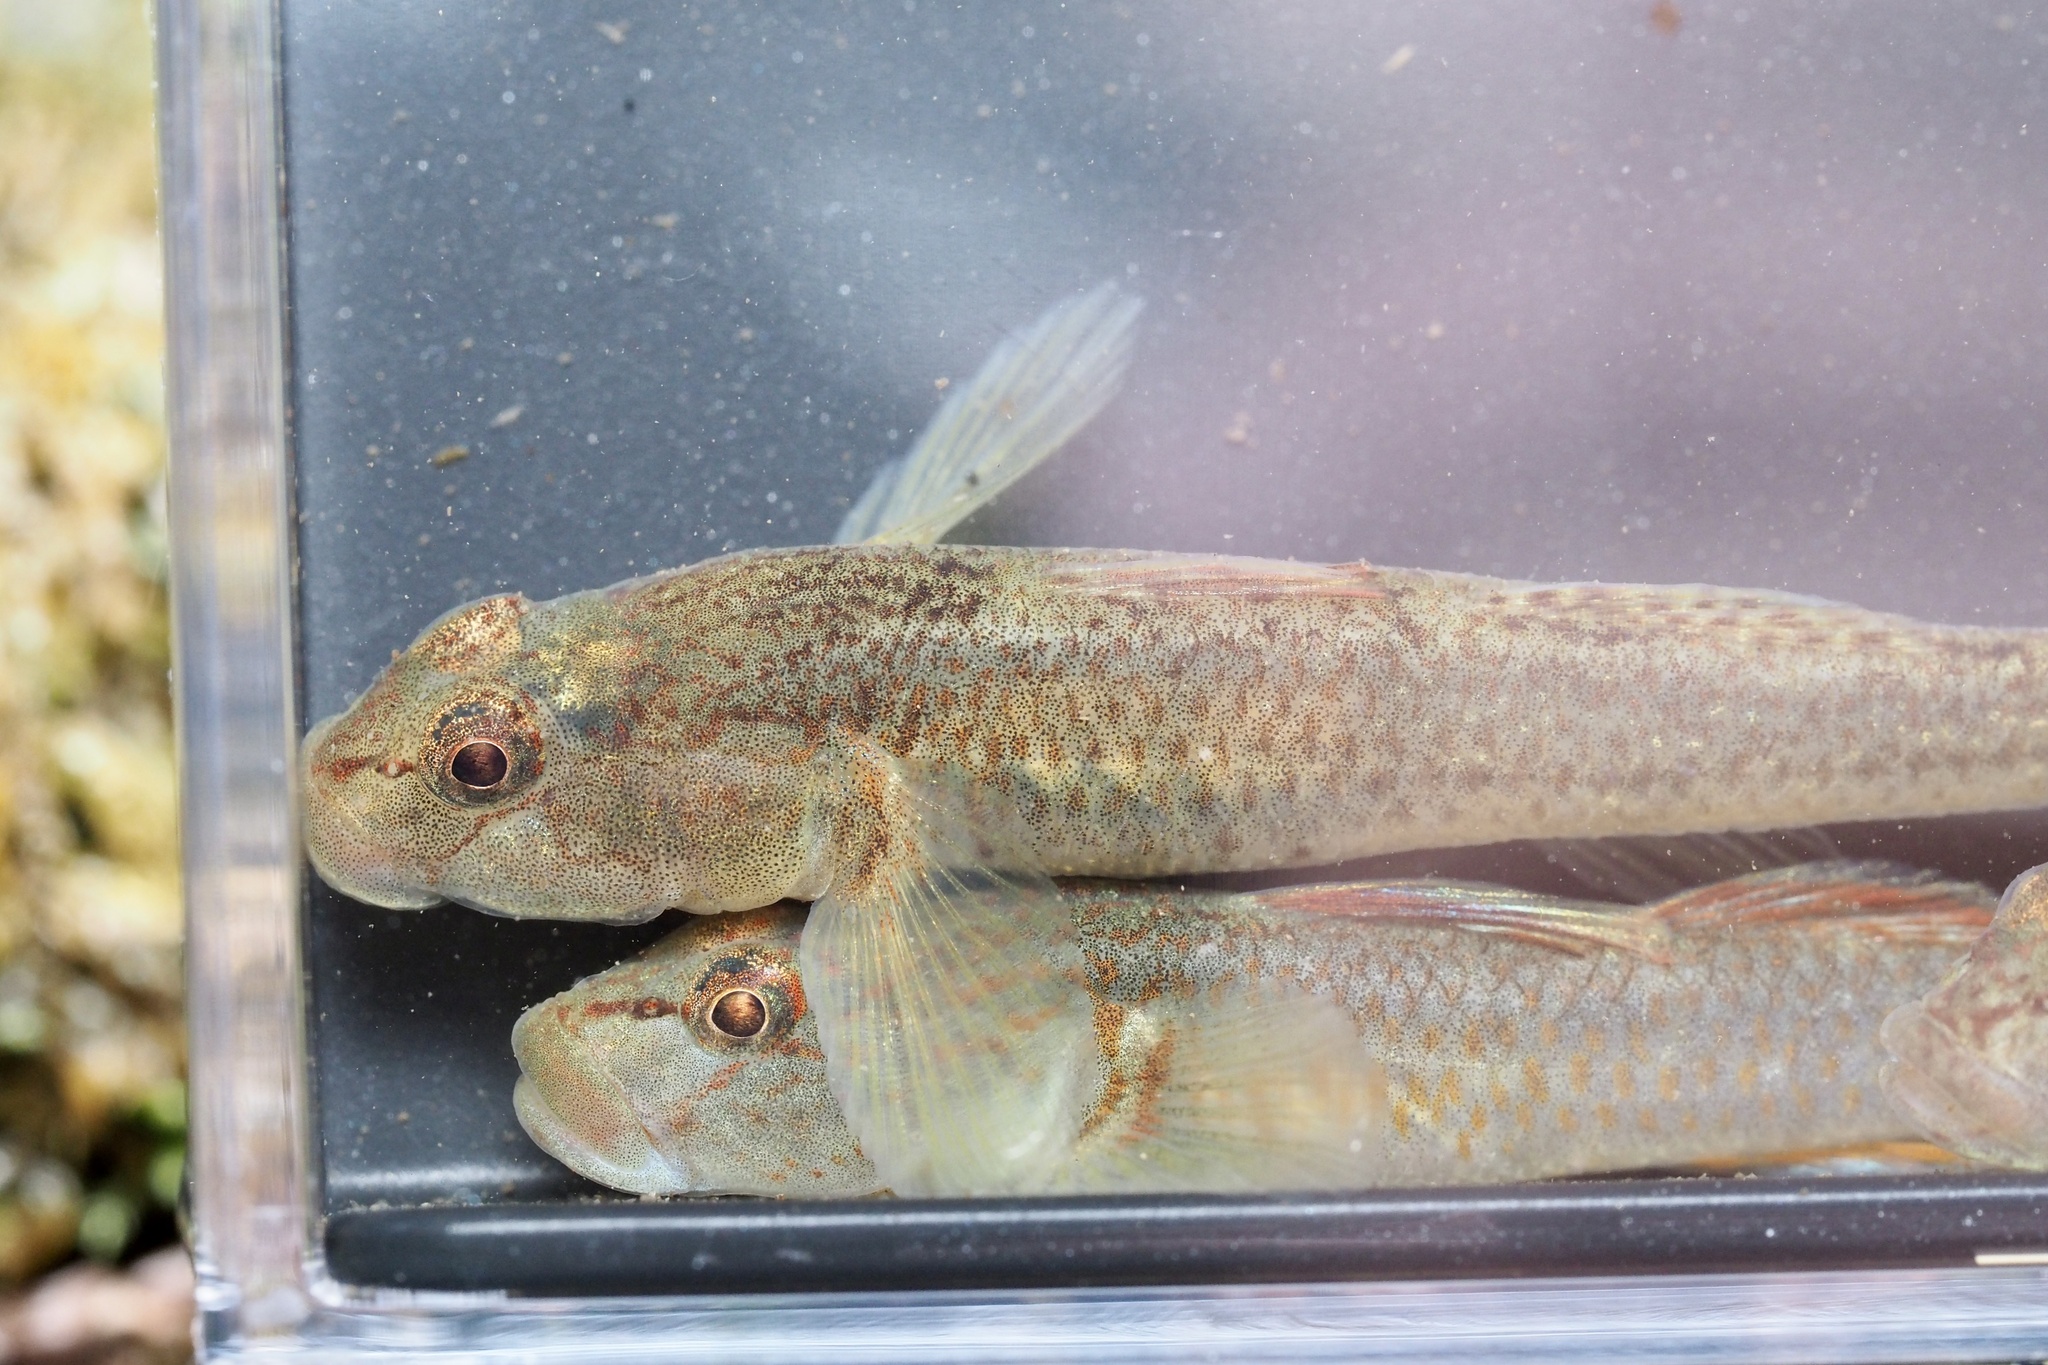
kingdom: Animalia
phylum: Chordata
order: Perciformes
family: Gobiidae
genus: Rhinogobius
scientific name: Rhinogobius flumineus
